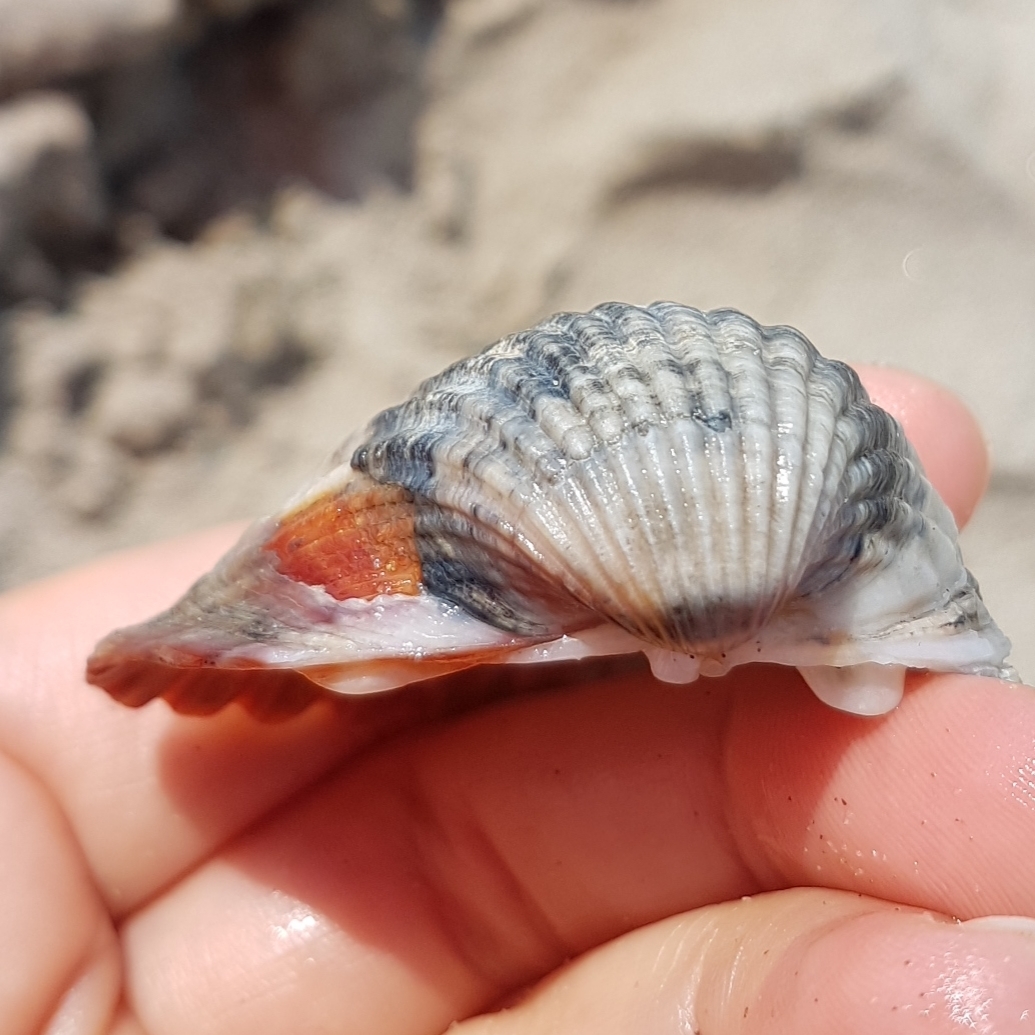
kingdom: Animalia
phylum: Mollusca
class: Bivalvia
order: Cardiida
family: Cardiidae
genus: Cerastoderma
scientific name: Cerastoderma glaucum
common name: Lagoon cockle
